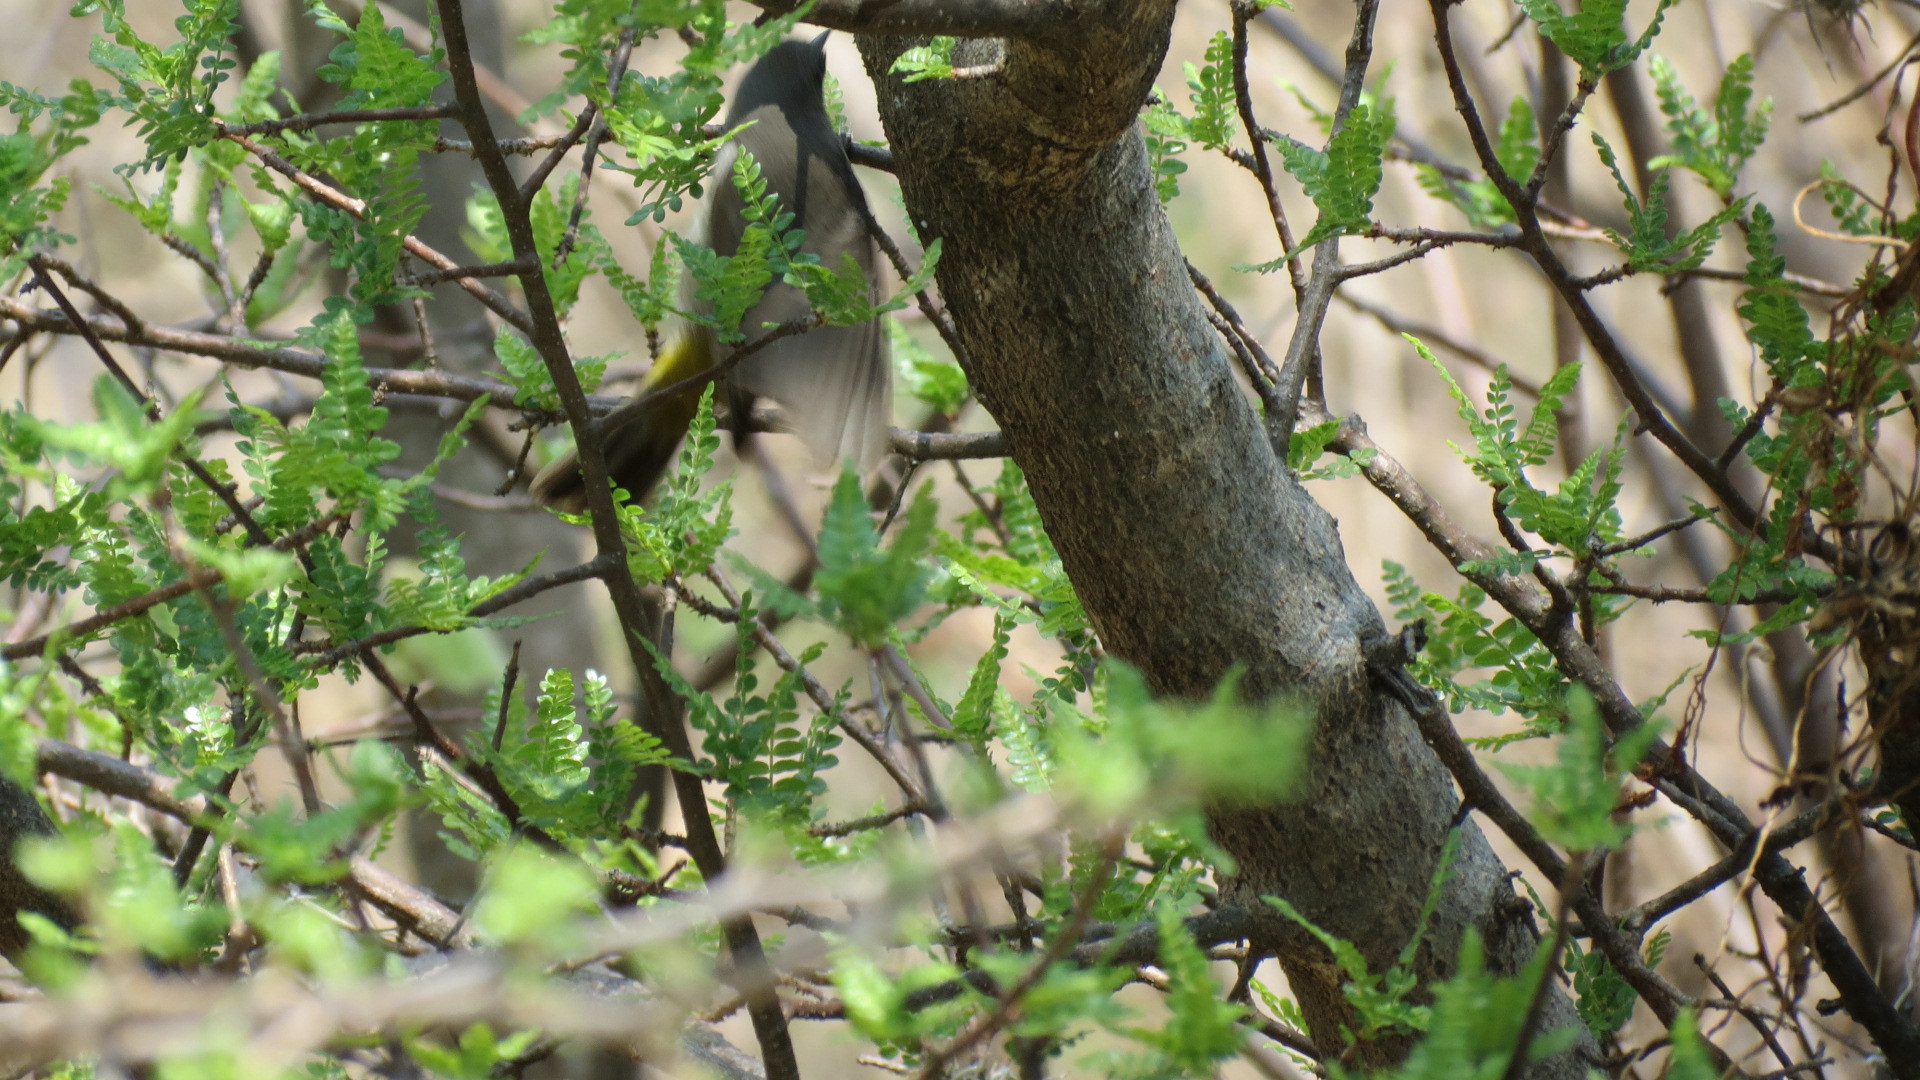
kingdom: Animalia
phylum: Chordata
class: Aves
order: Passeriformes
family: Parulidae
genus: Leiothlypis
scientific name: Leiothlypis virginiae
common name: Virginia's warbler
